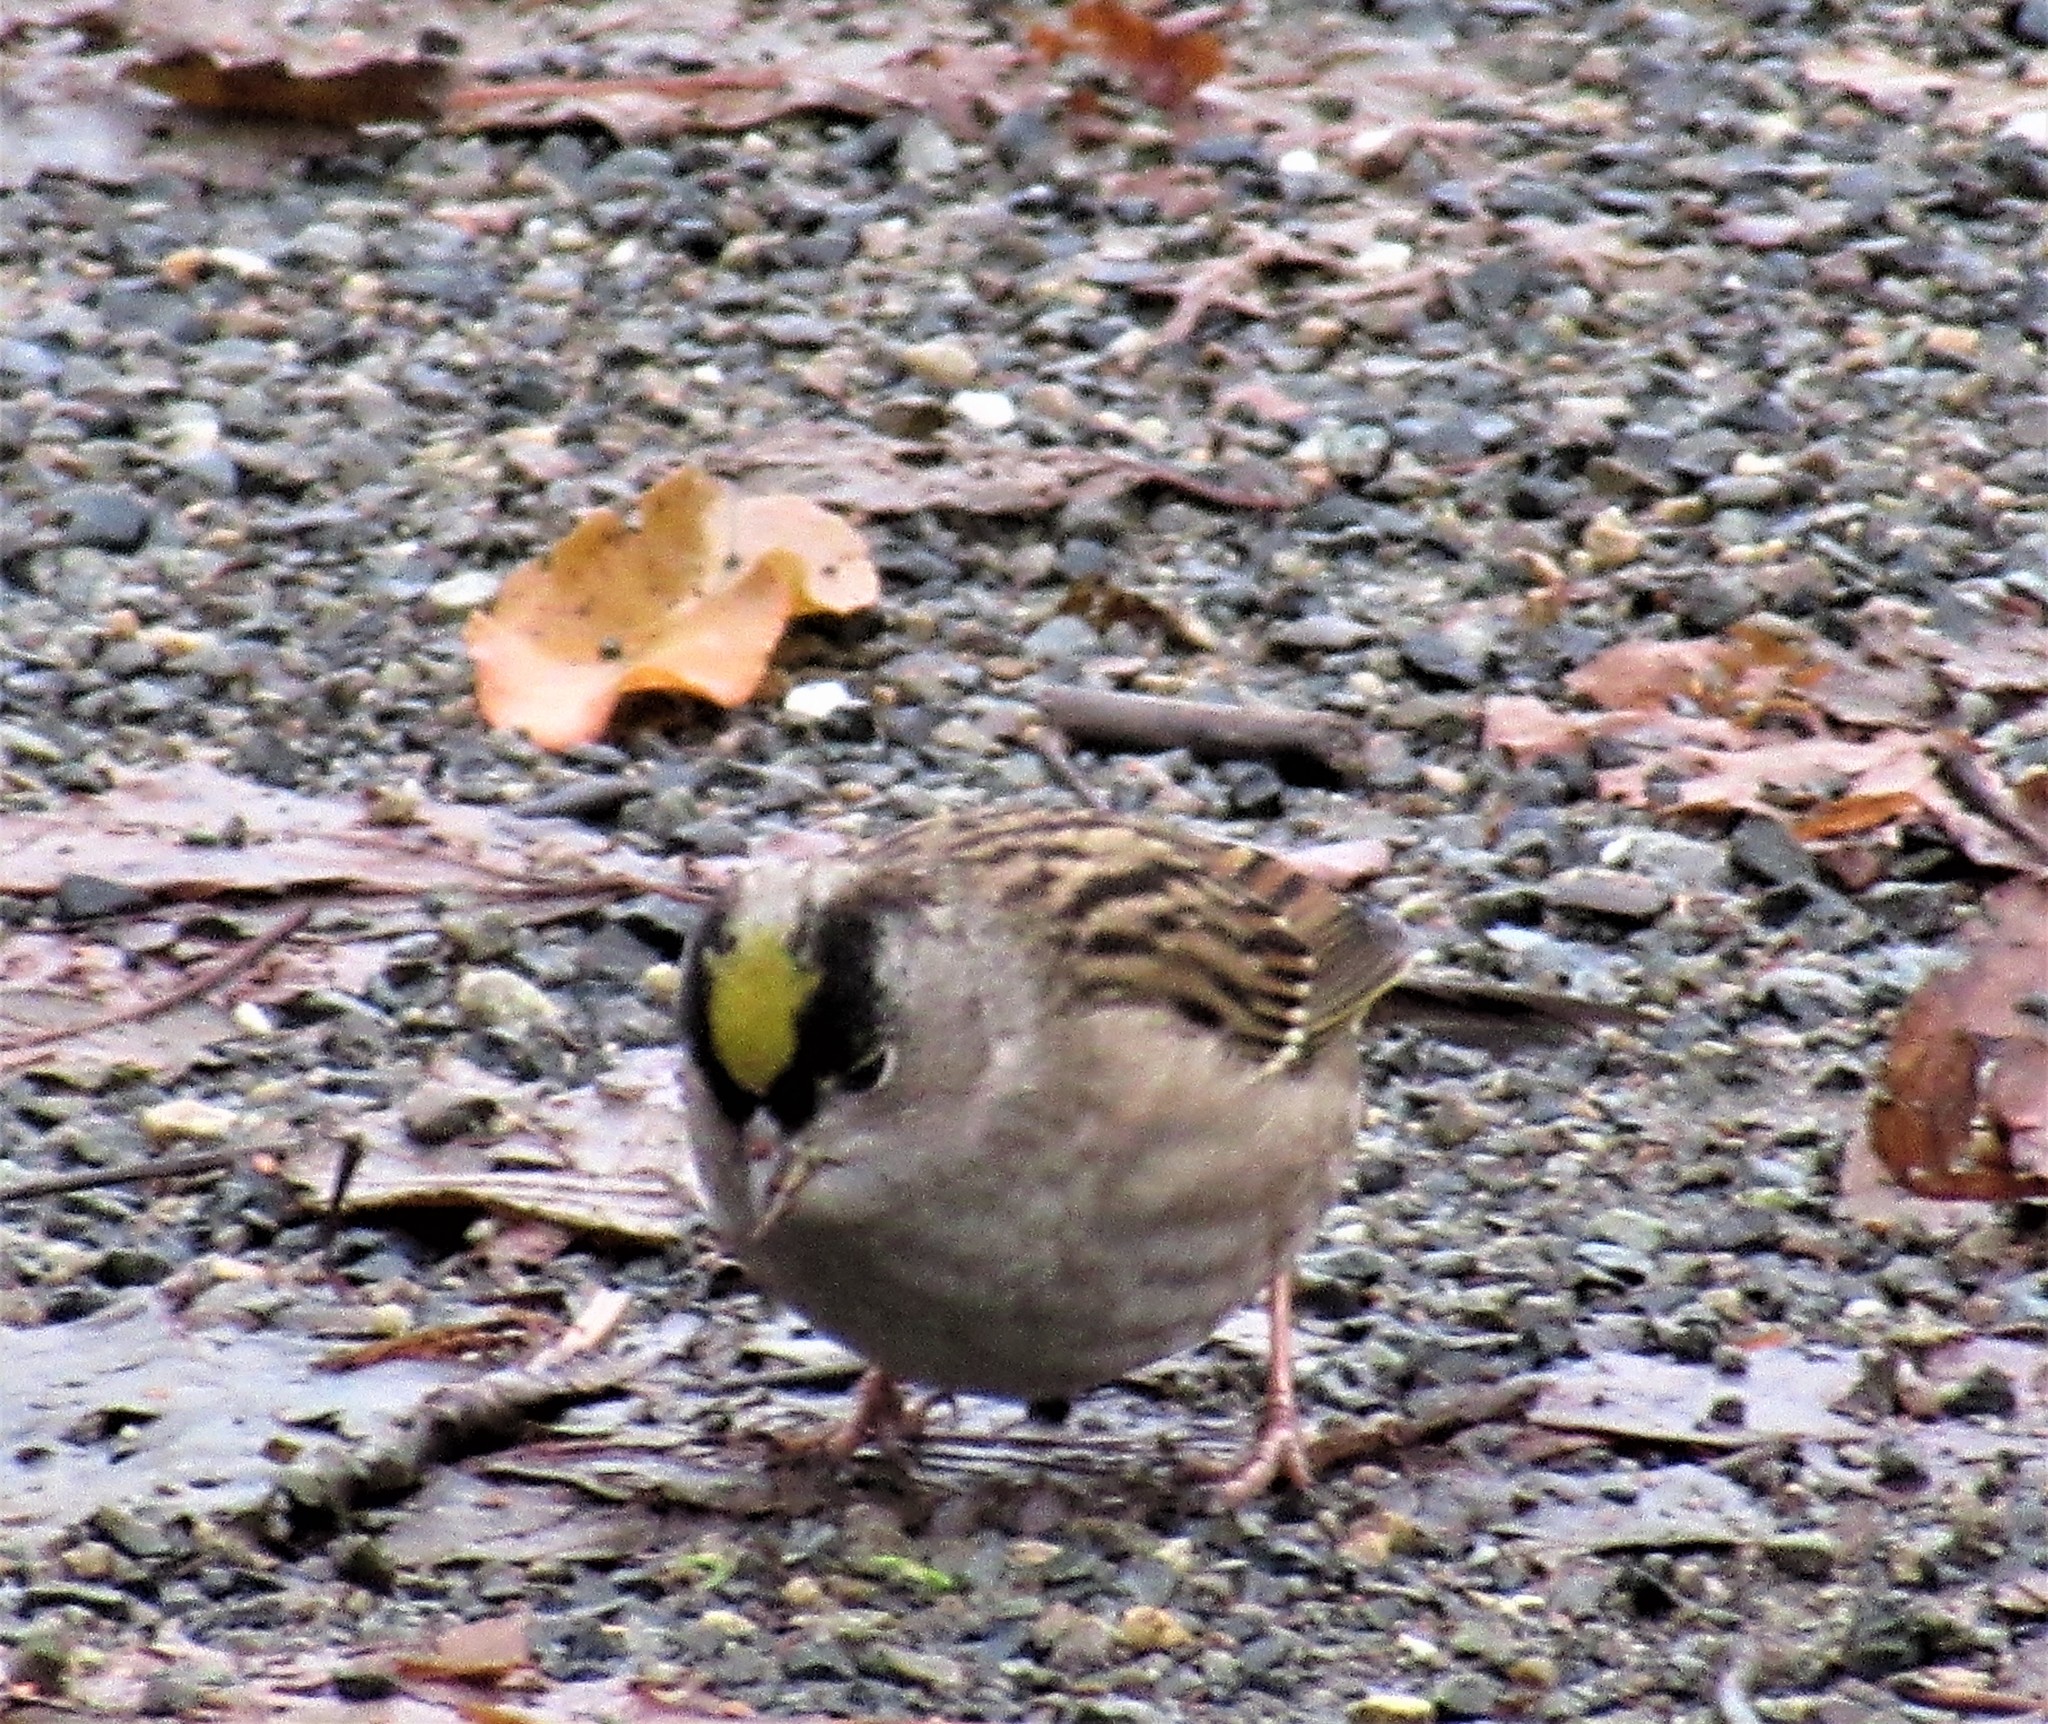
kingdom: Animalia
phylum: Chordata
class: Aves
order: Passeriformes
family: Passerellidae
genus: Zonotrichia
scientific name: Zonotrichia atricapilla
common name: Golden-crowned sparrow
